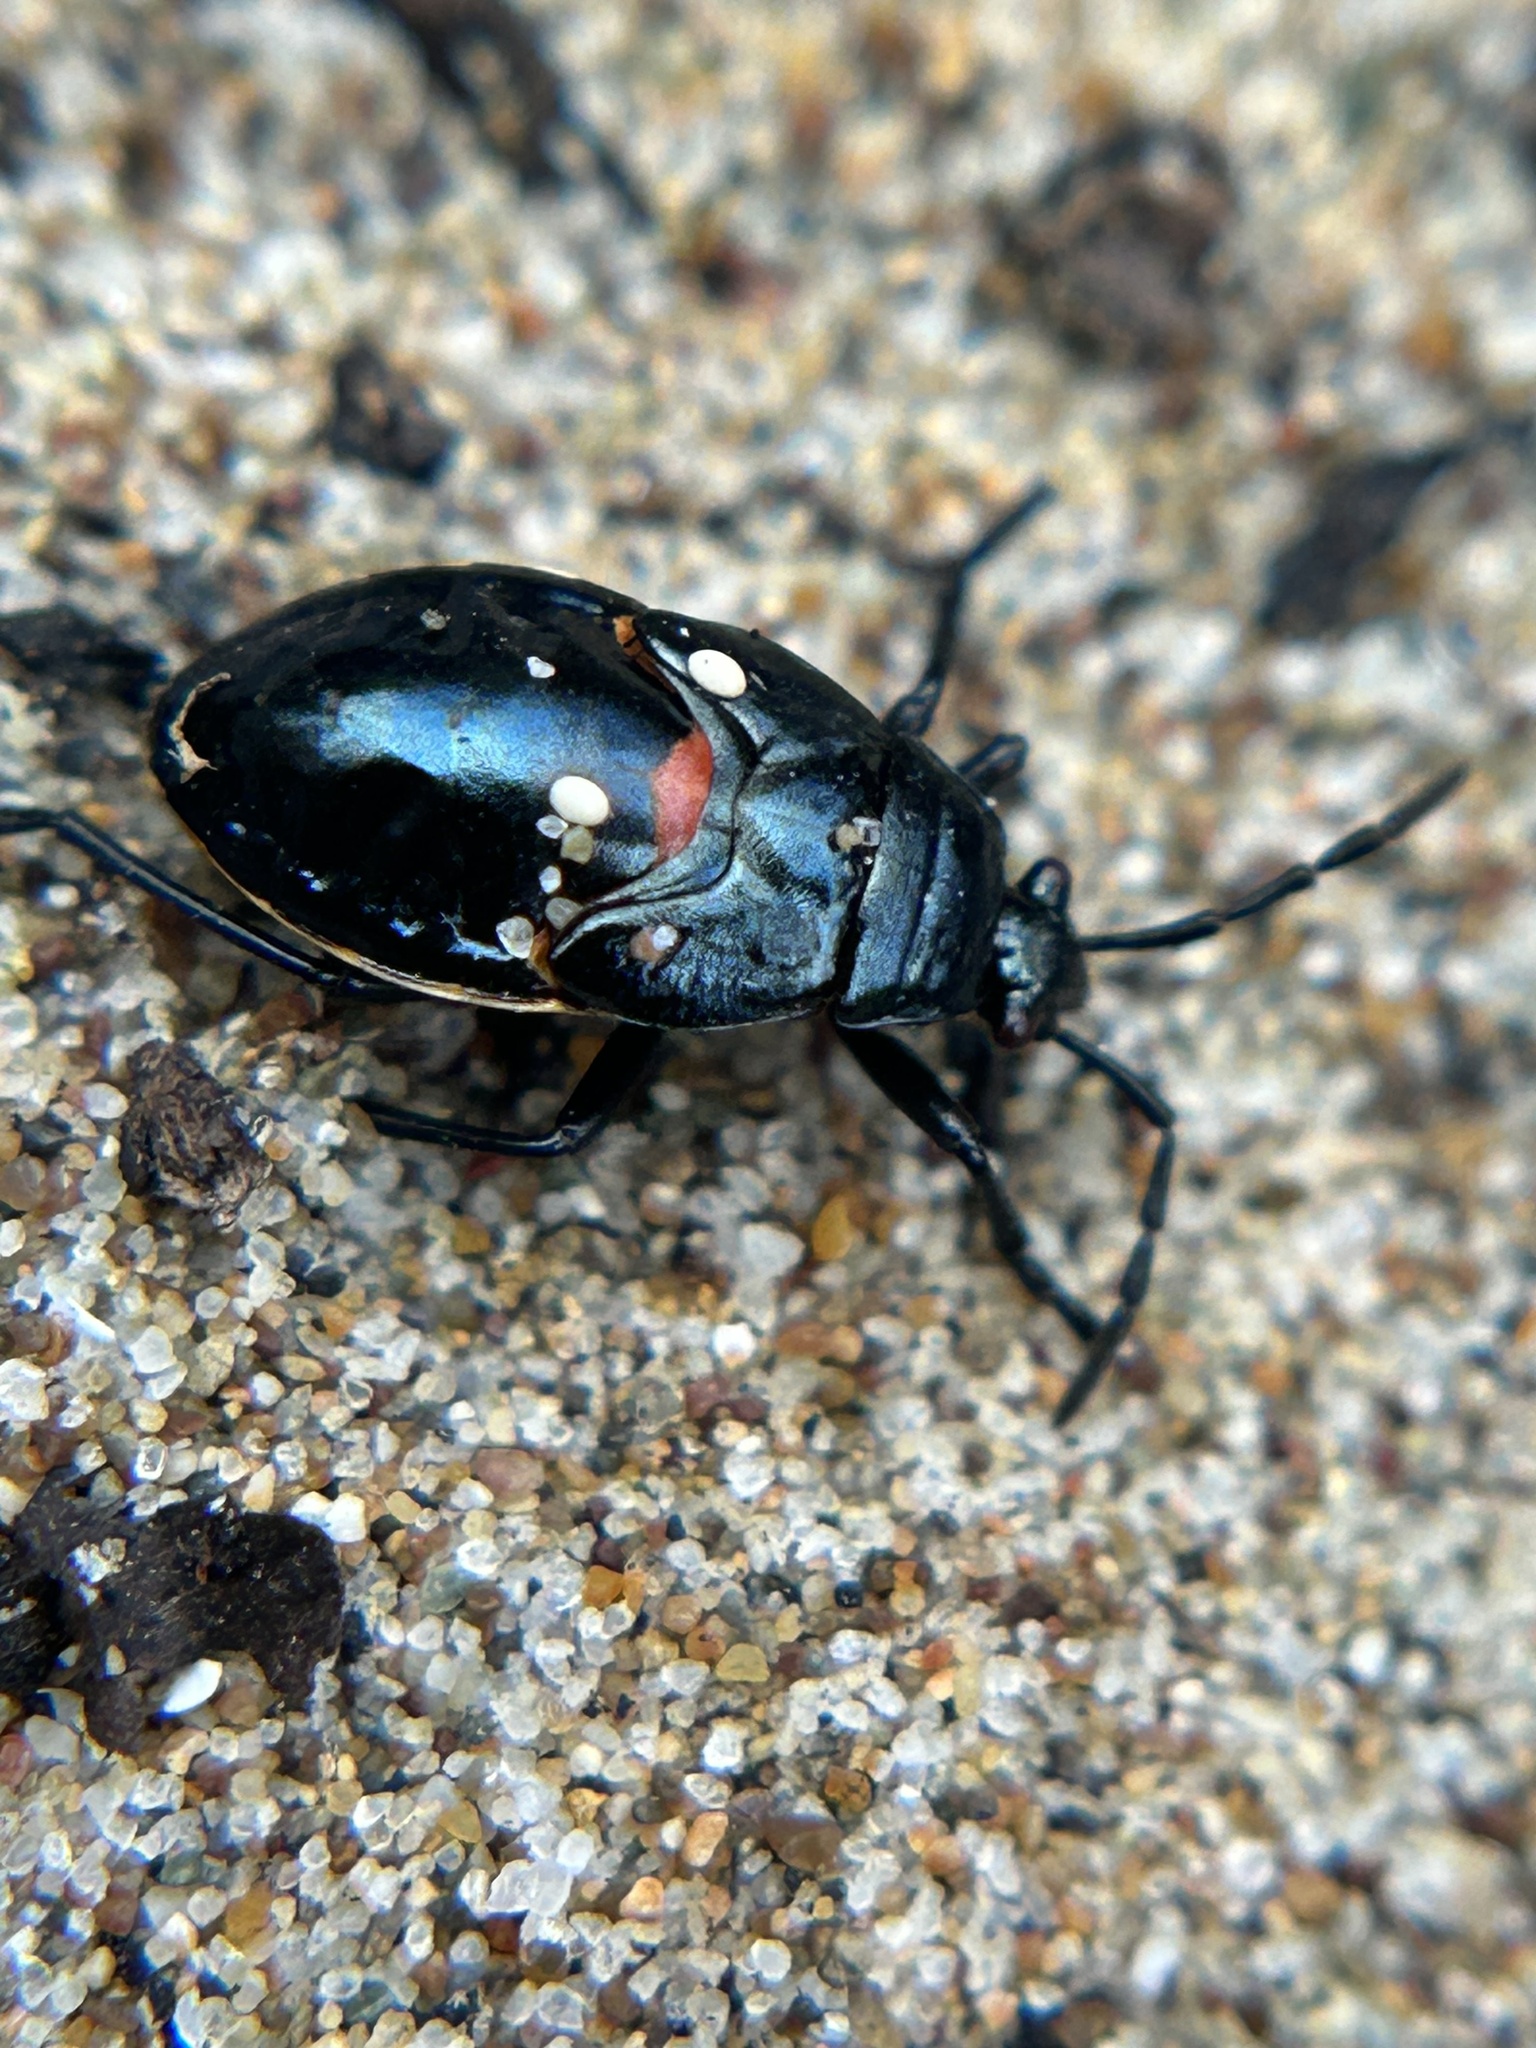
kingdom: Animalia
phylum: Arthropoda
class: Insecta
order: Hemiptera
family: Largidae
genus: Largus
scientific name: Largus californicus
